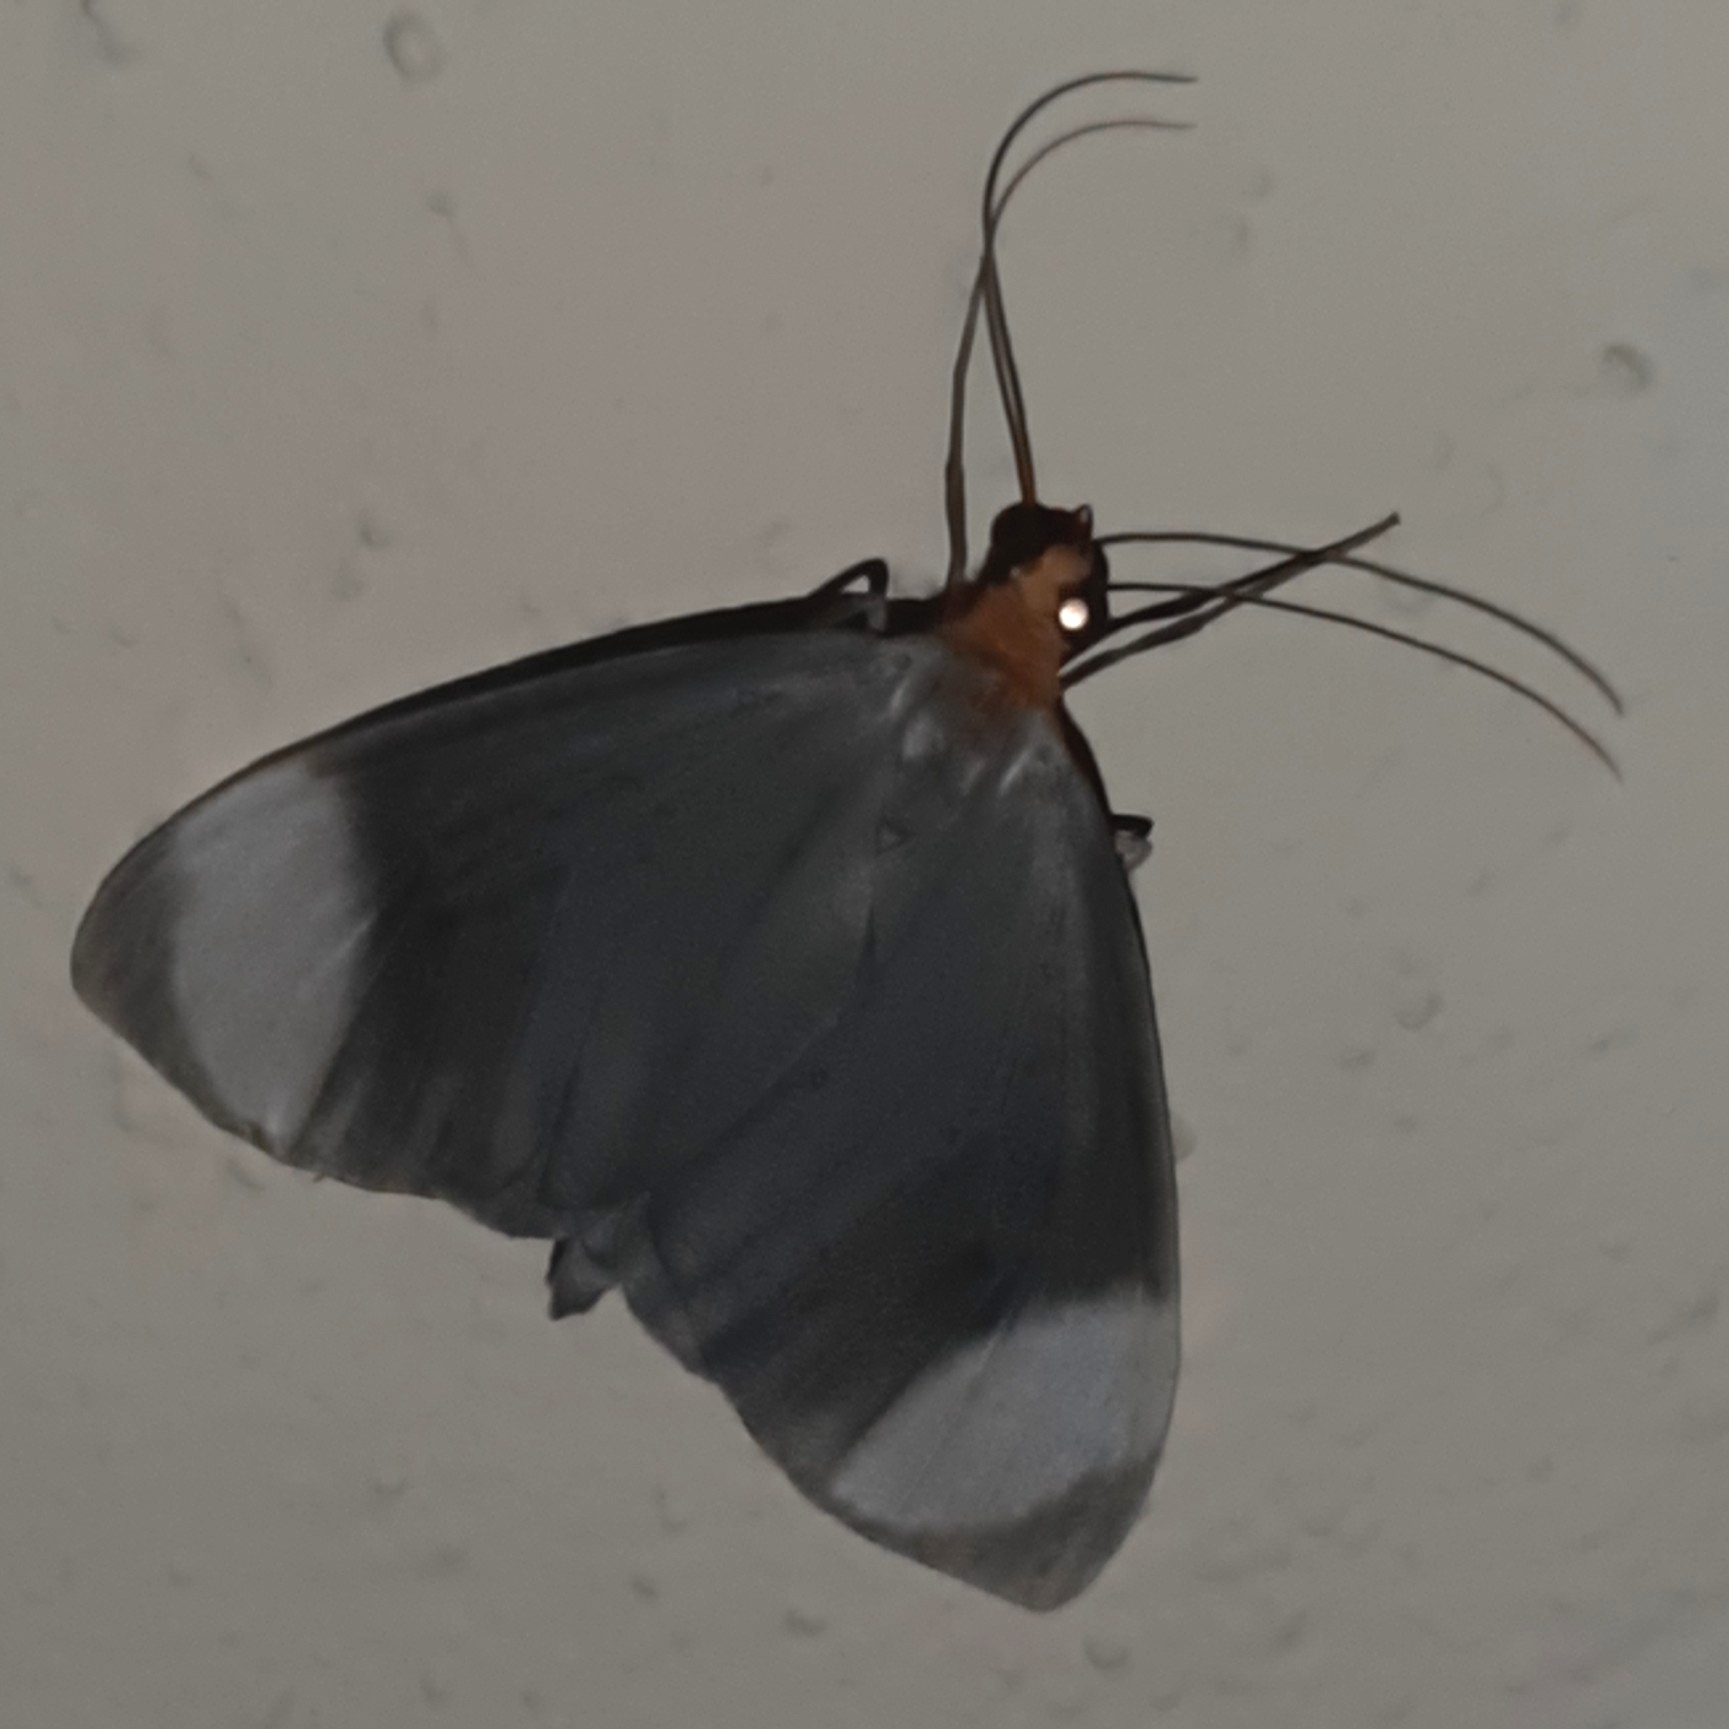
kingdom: Animalia
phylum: Arthropoda
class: Insecta
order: Lepidoptera
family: Geometridae
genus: Crocypus
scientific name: Crocypus perlucidaria
